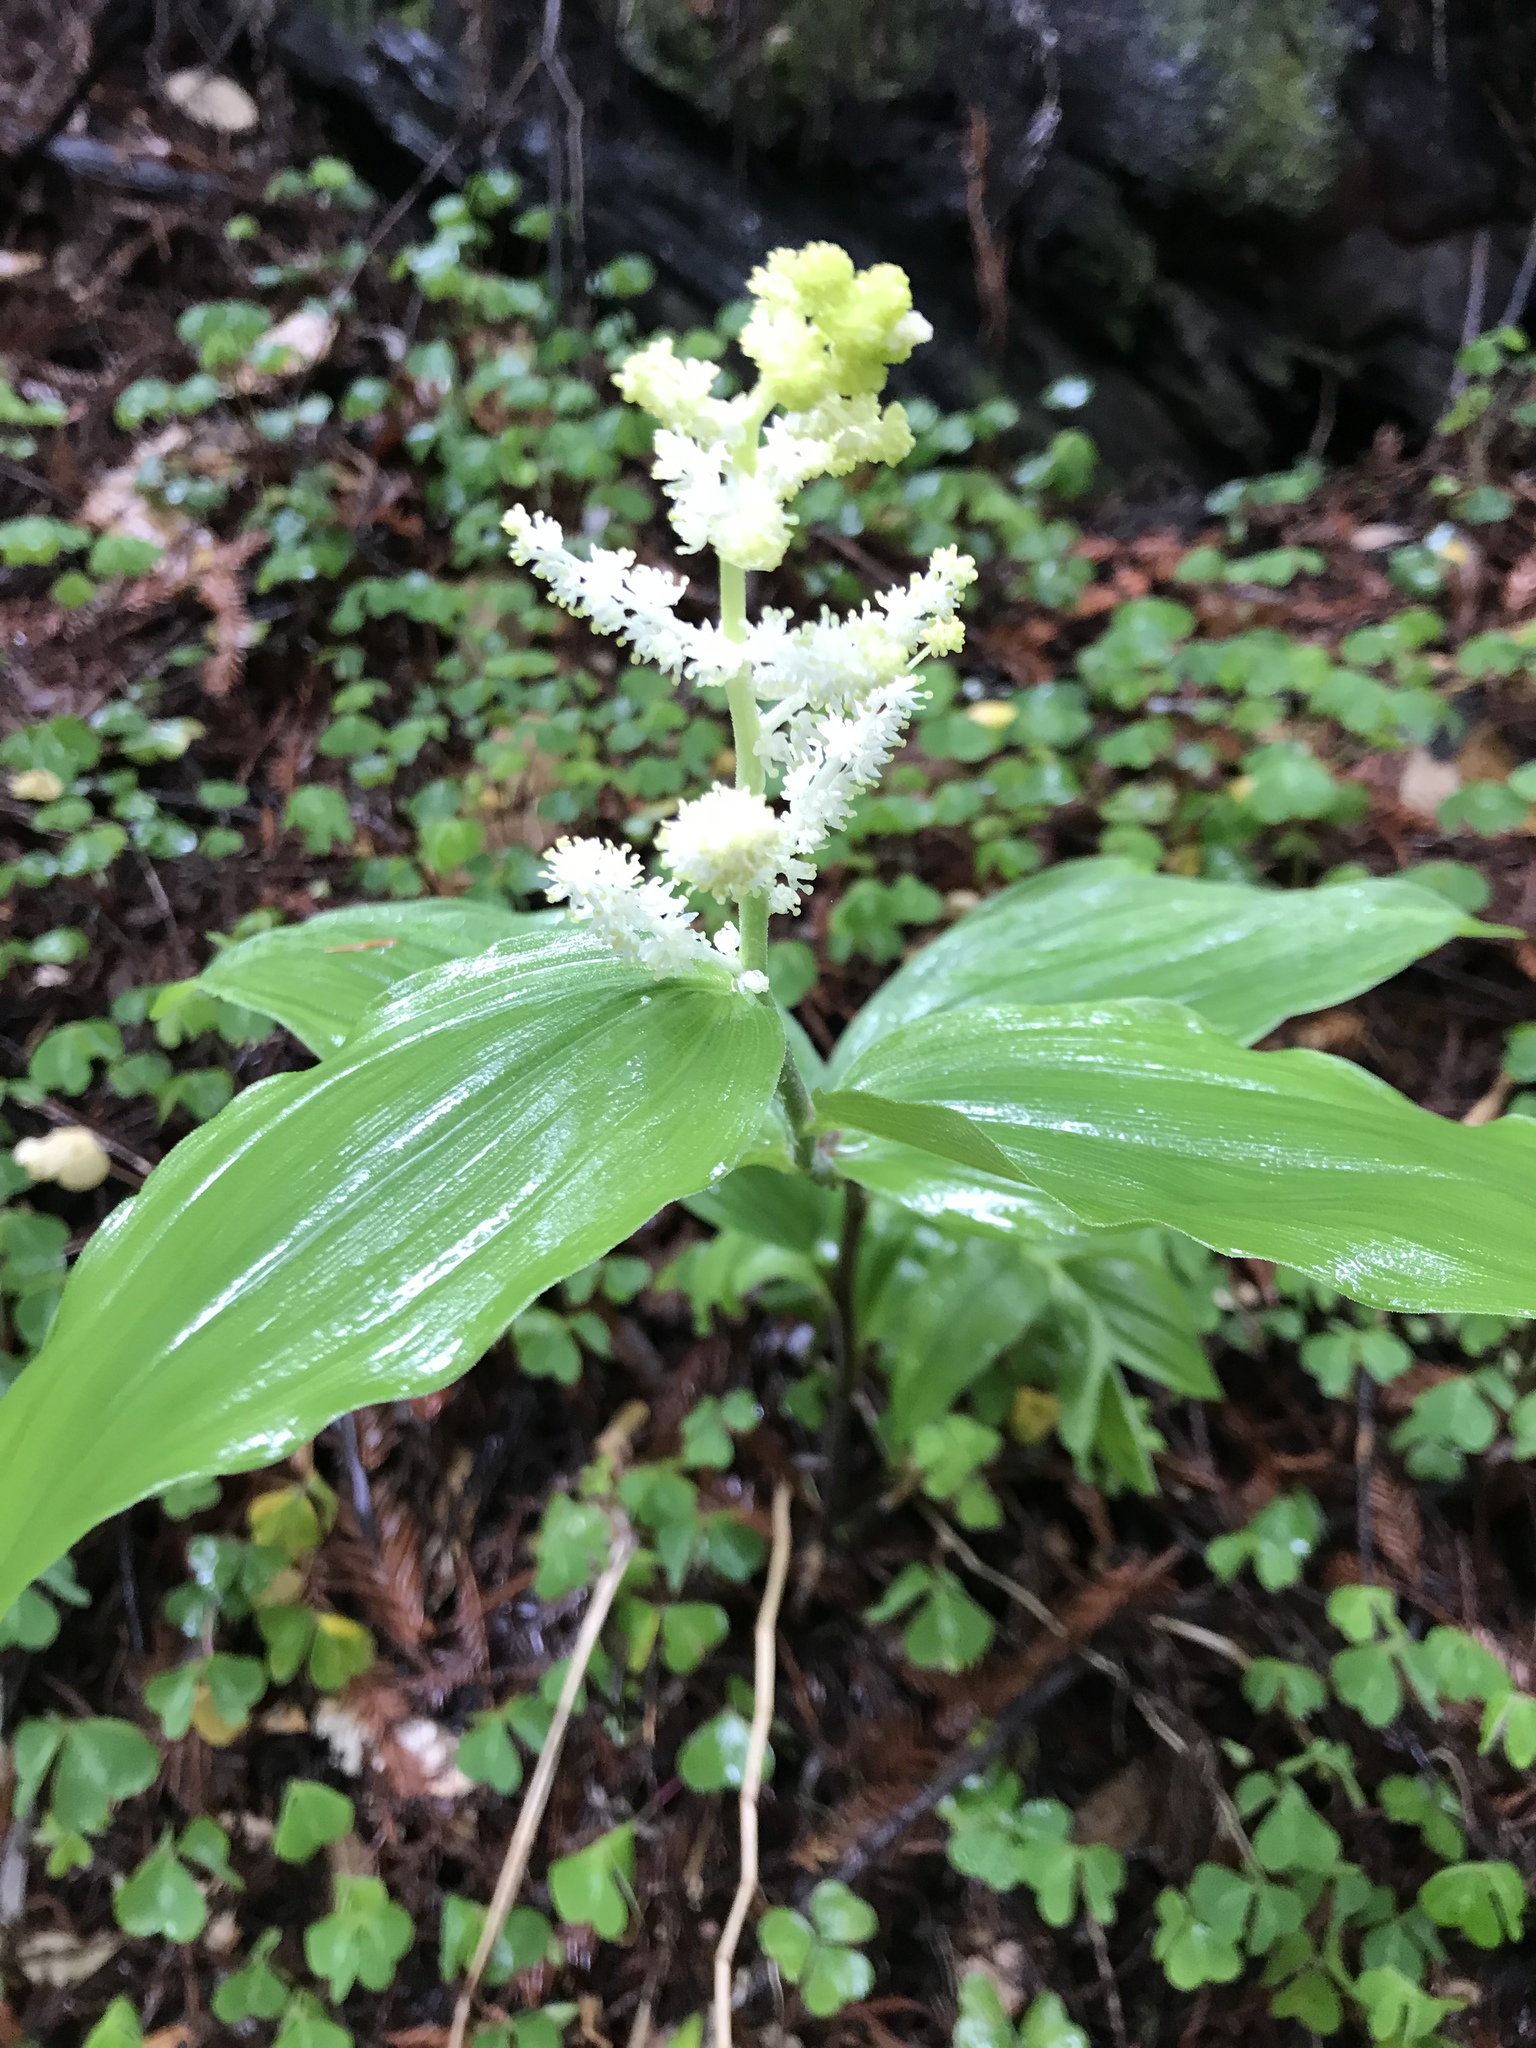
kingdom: Plantae
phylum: Tracheophyta
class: Liliopsida
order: Asparagales
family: Asparagaceae
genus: Maianthemum
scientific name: Maianthemum racemosum
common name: False spikenard
